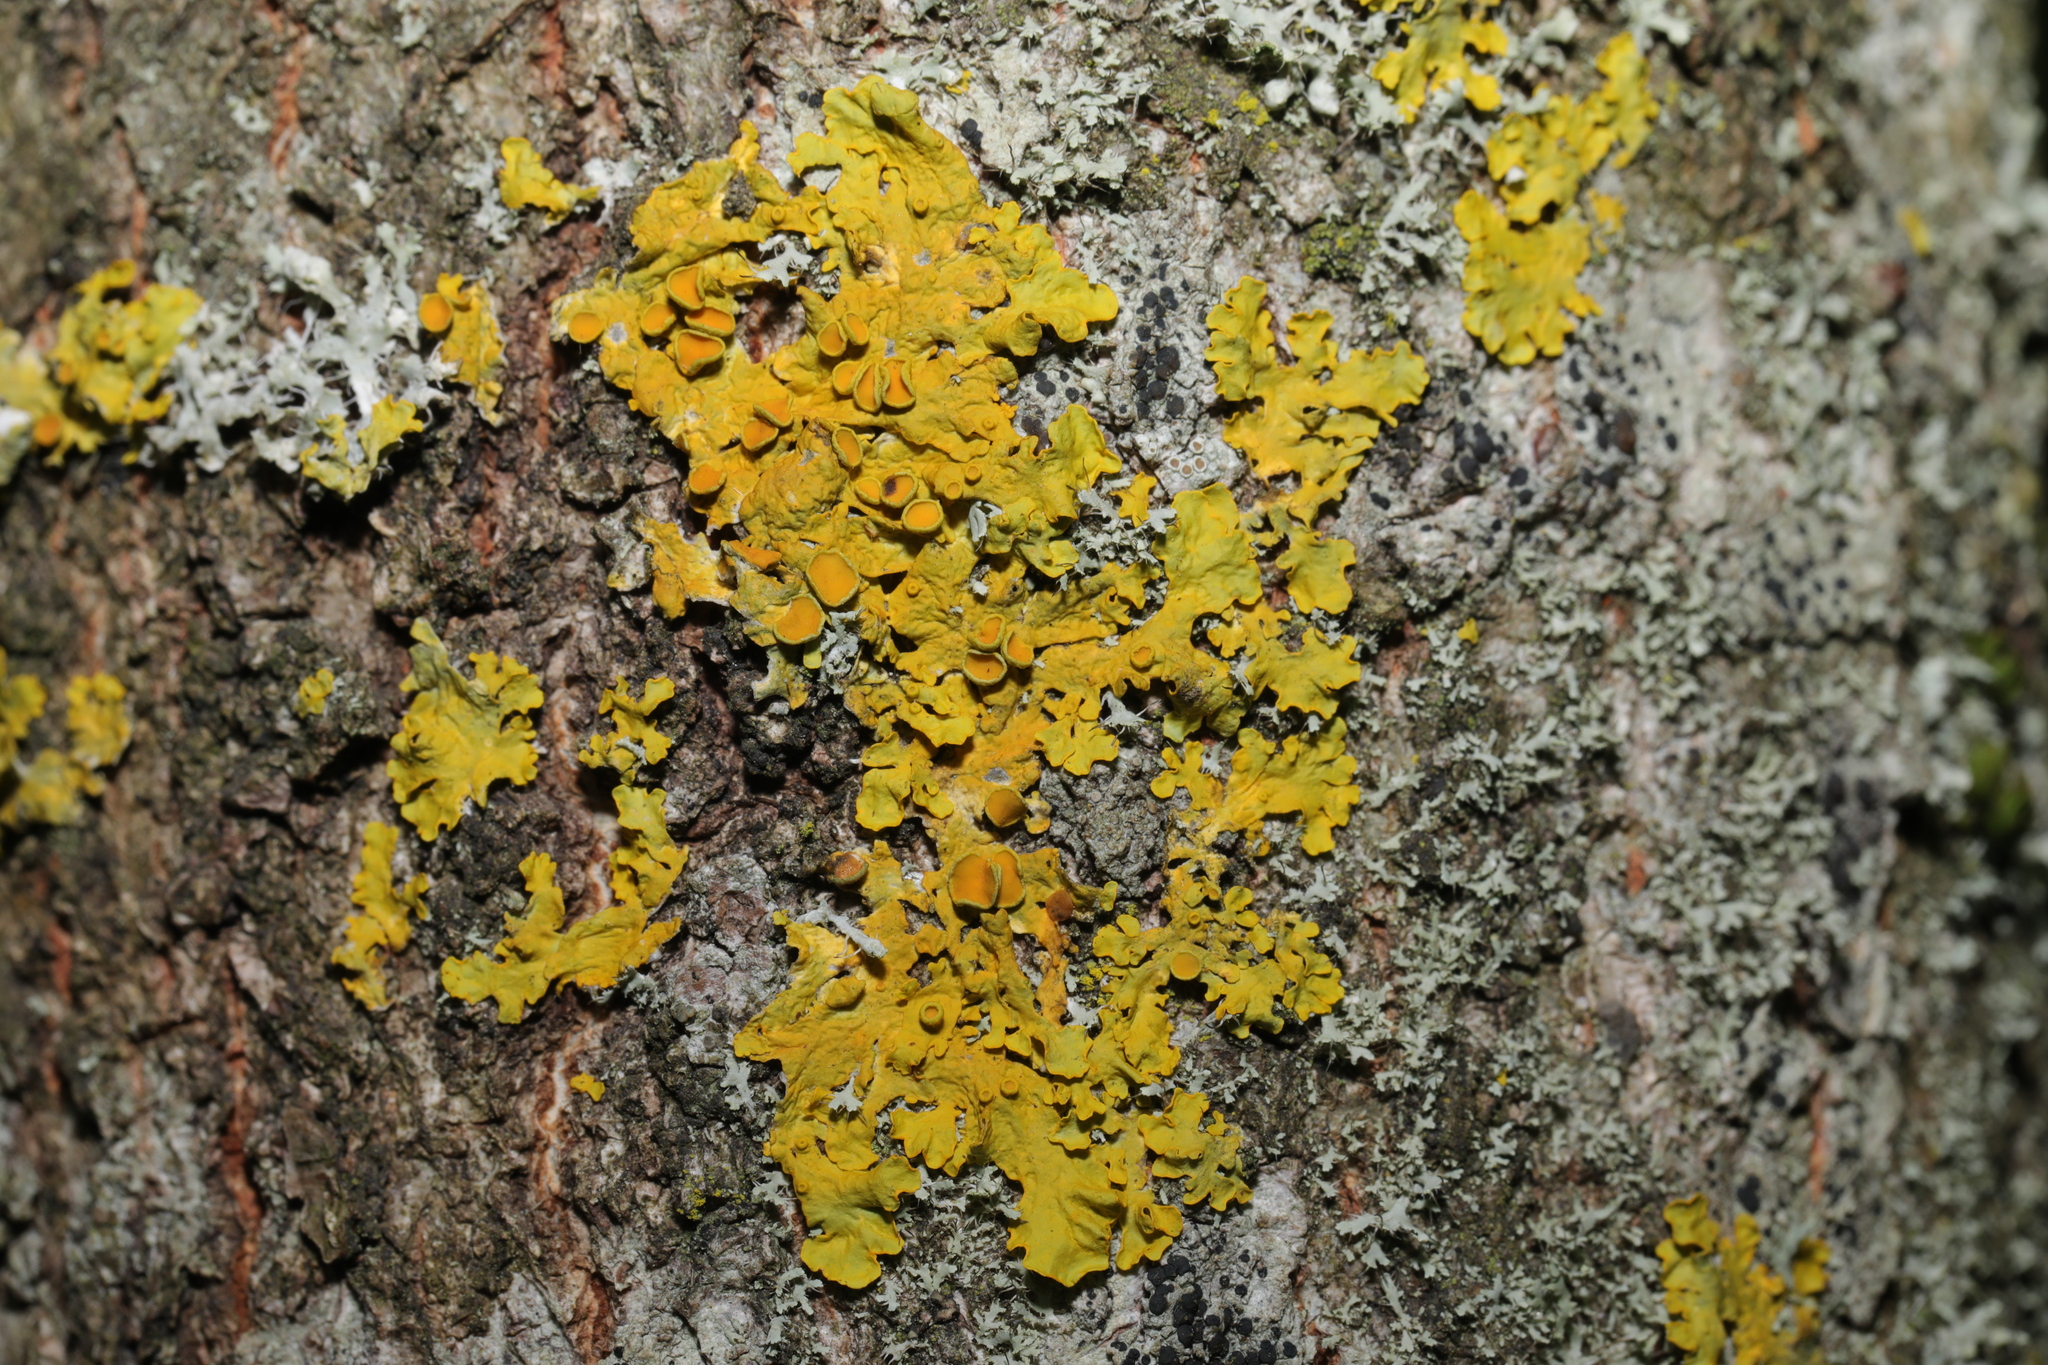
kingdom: Fungi
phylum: Ascomycota
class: Lecanoromycetes
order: Teloschistales
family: Teloschistaceae
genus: Xanthoria
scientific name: Xanthoria parietina
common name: Common orange lichen
